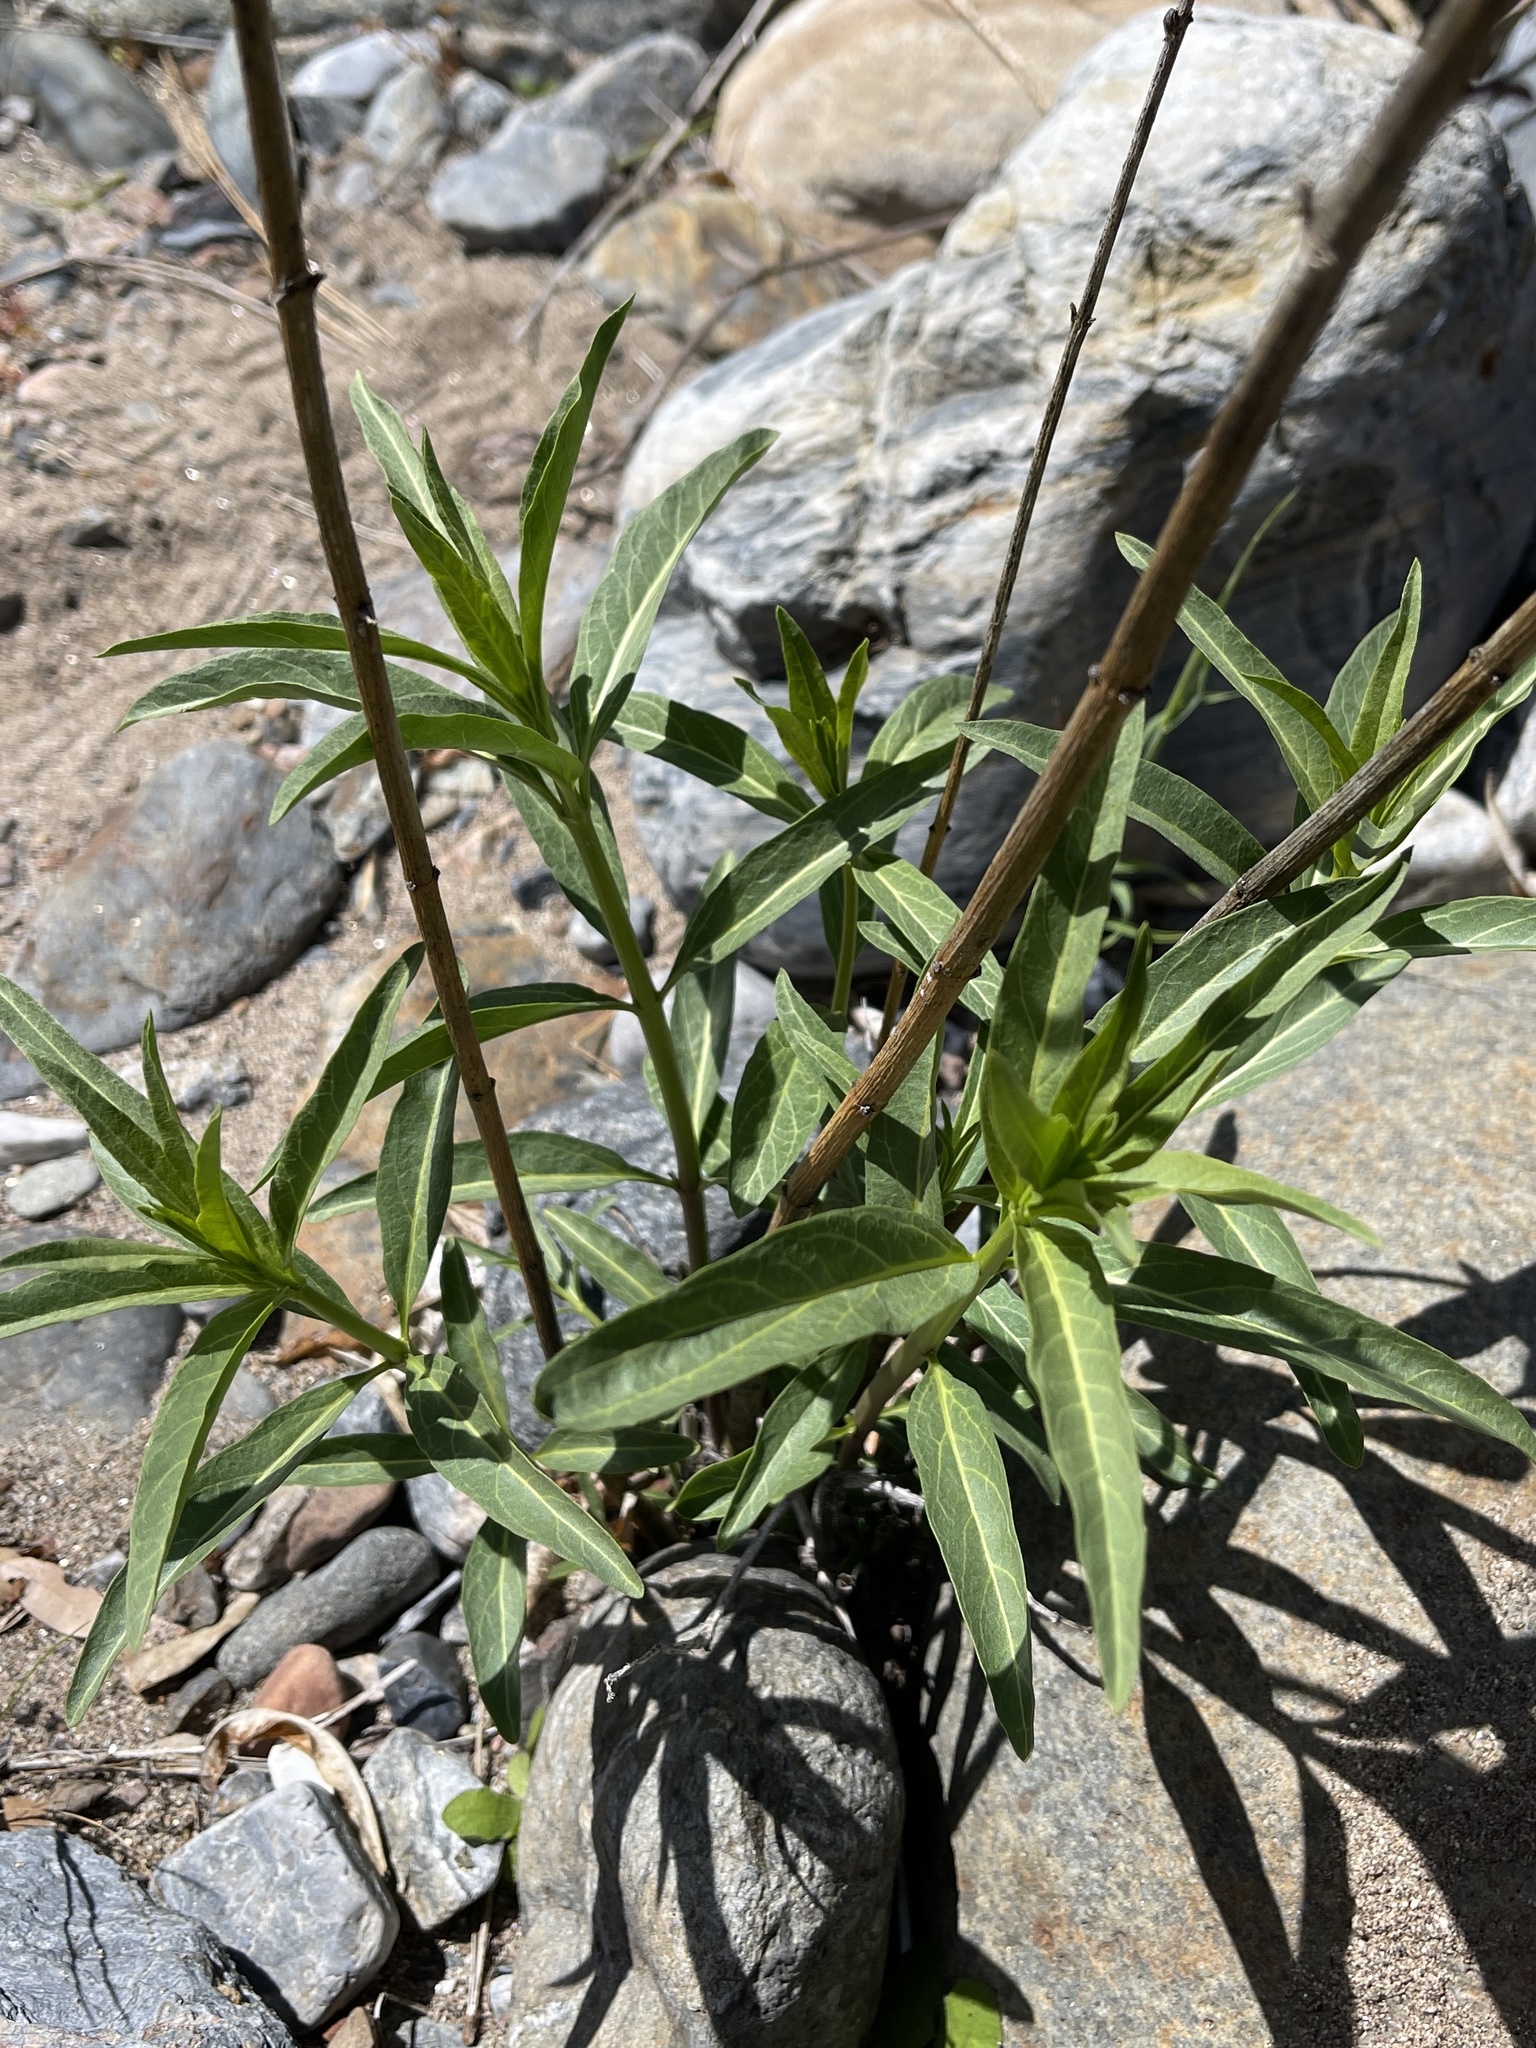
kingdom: Plantae
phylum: Tracheophyta
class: Magnoliopsida
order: Gentianales
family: Apocynaceae
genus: Asclepias
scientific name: Asclepias fascicularis
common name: Mexican milkweed
